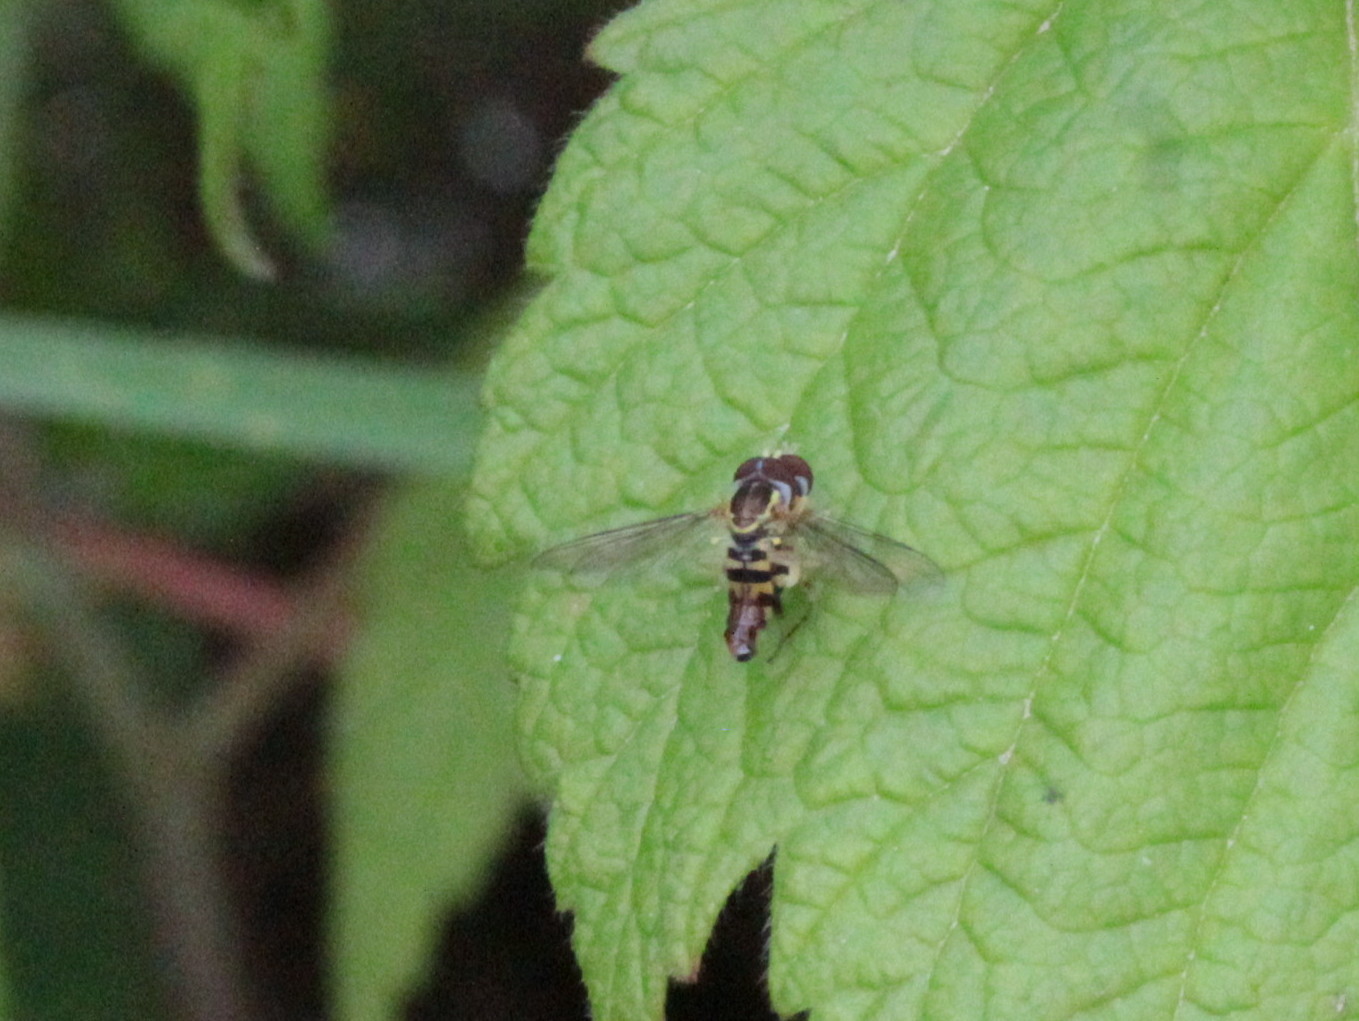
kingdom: Animalia
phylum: Arthropoda
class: Insecta
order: Diptera
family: Syrphidae
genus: Toxomerus
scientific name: Toxomerus geminatus
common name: Eastern calligrapher
